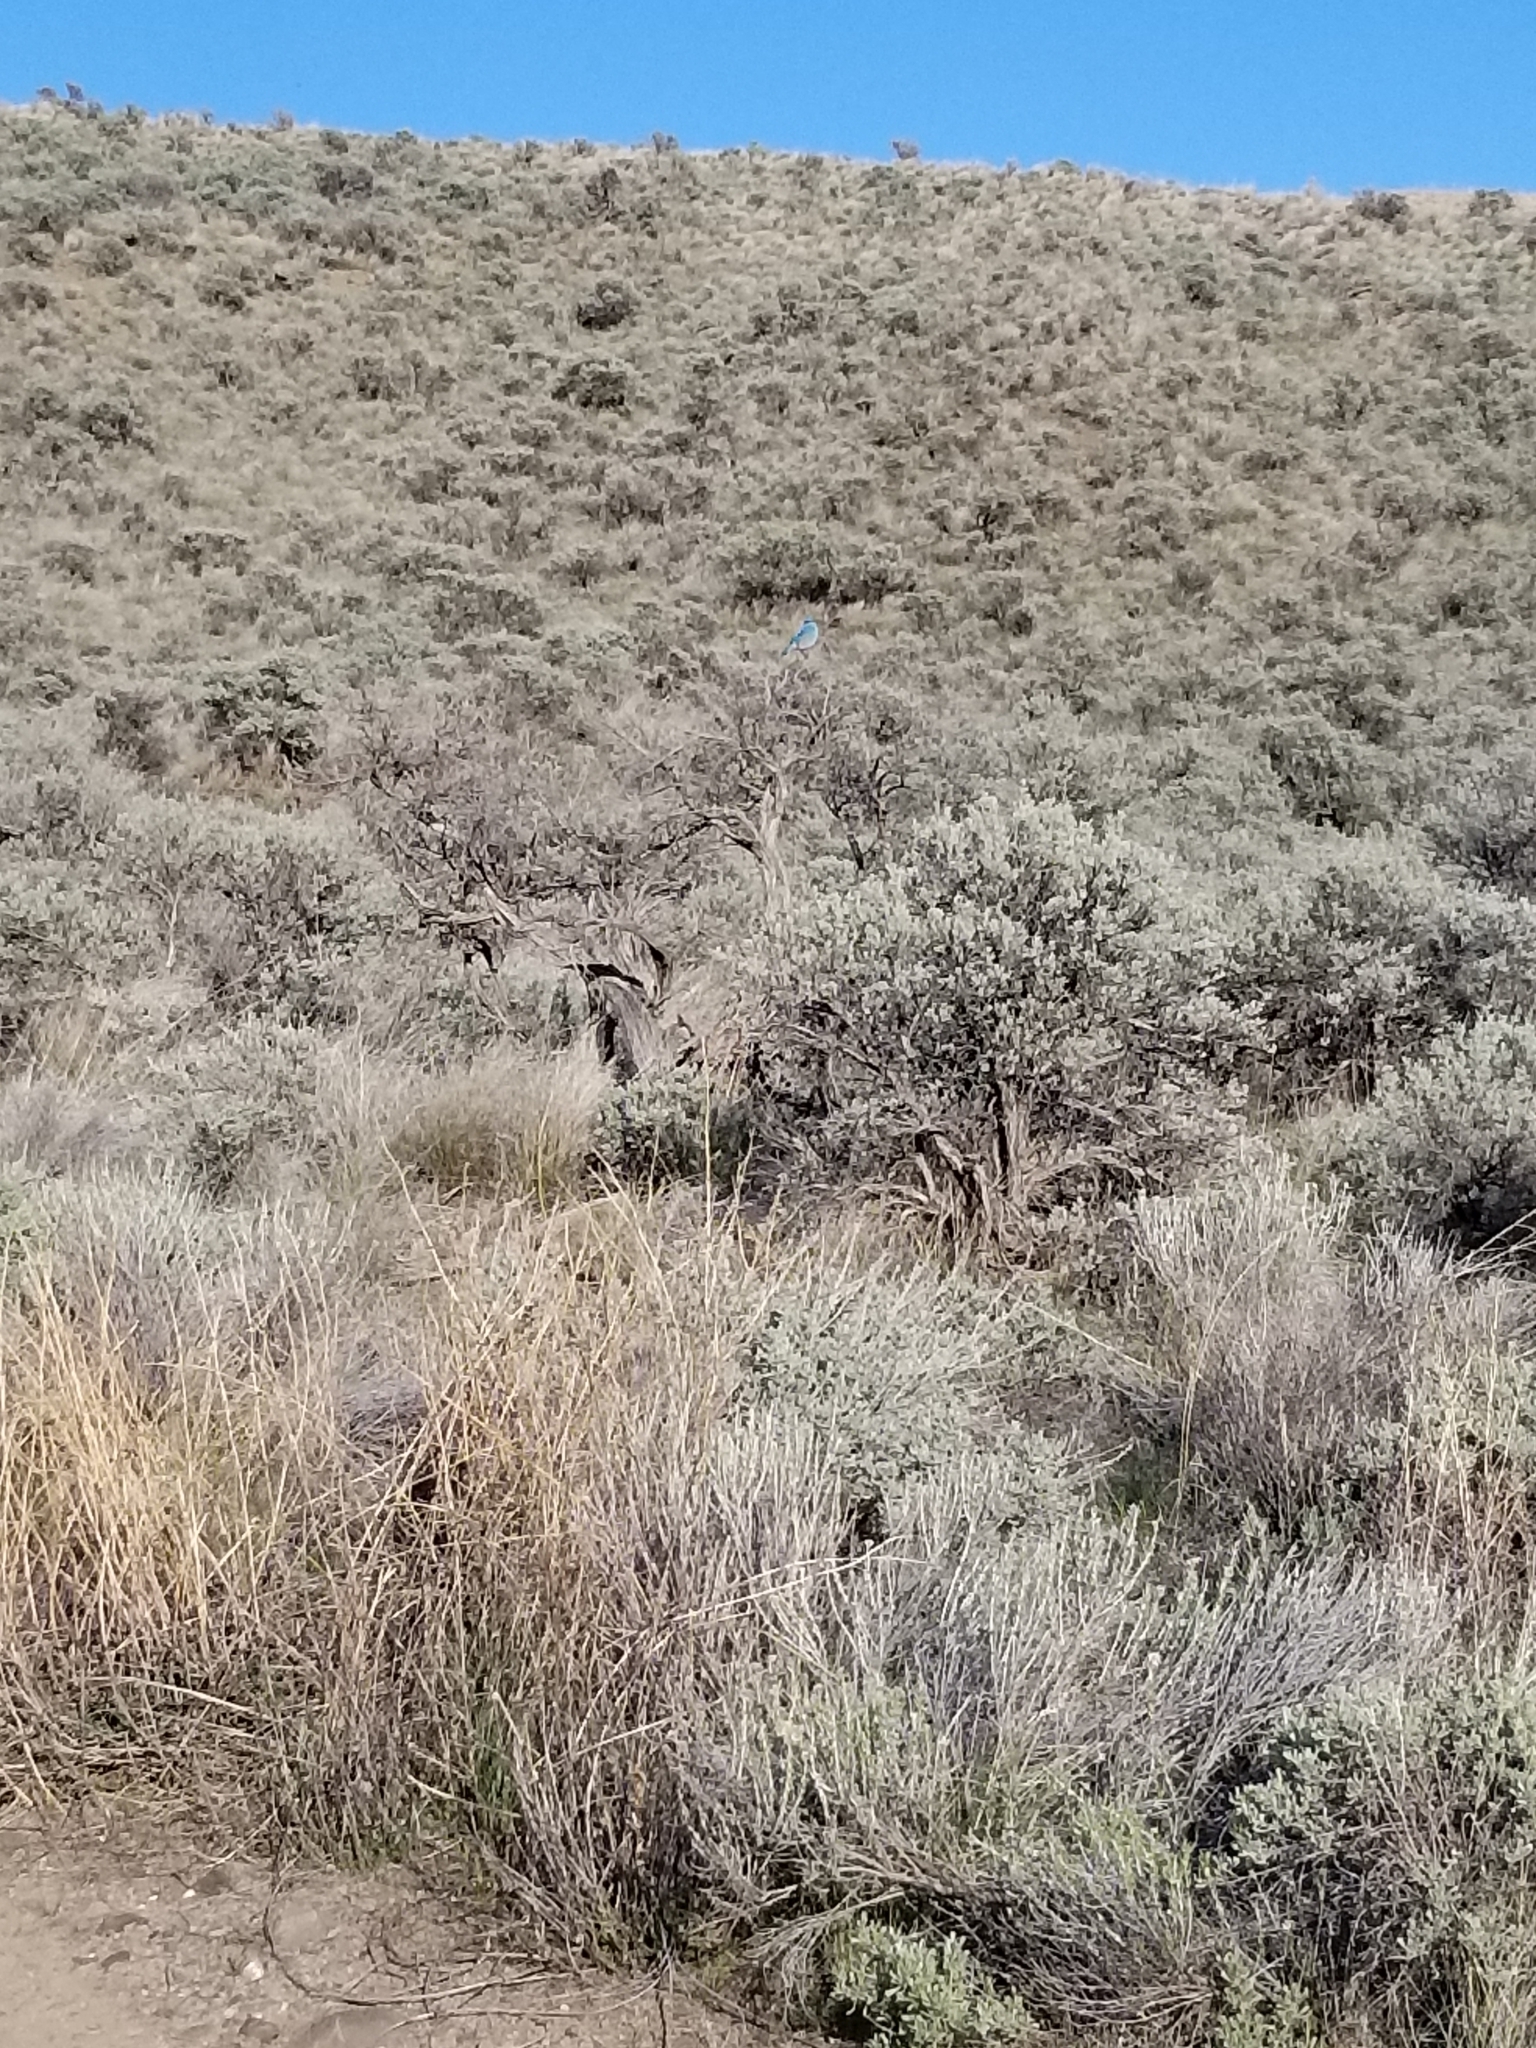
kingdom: Animalia
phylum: Chordata
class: Aves
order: Passeriformes
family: Turdidae
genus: Sialia
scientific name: Sialia currucoides
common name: Mountain bluebird
